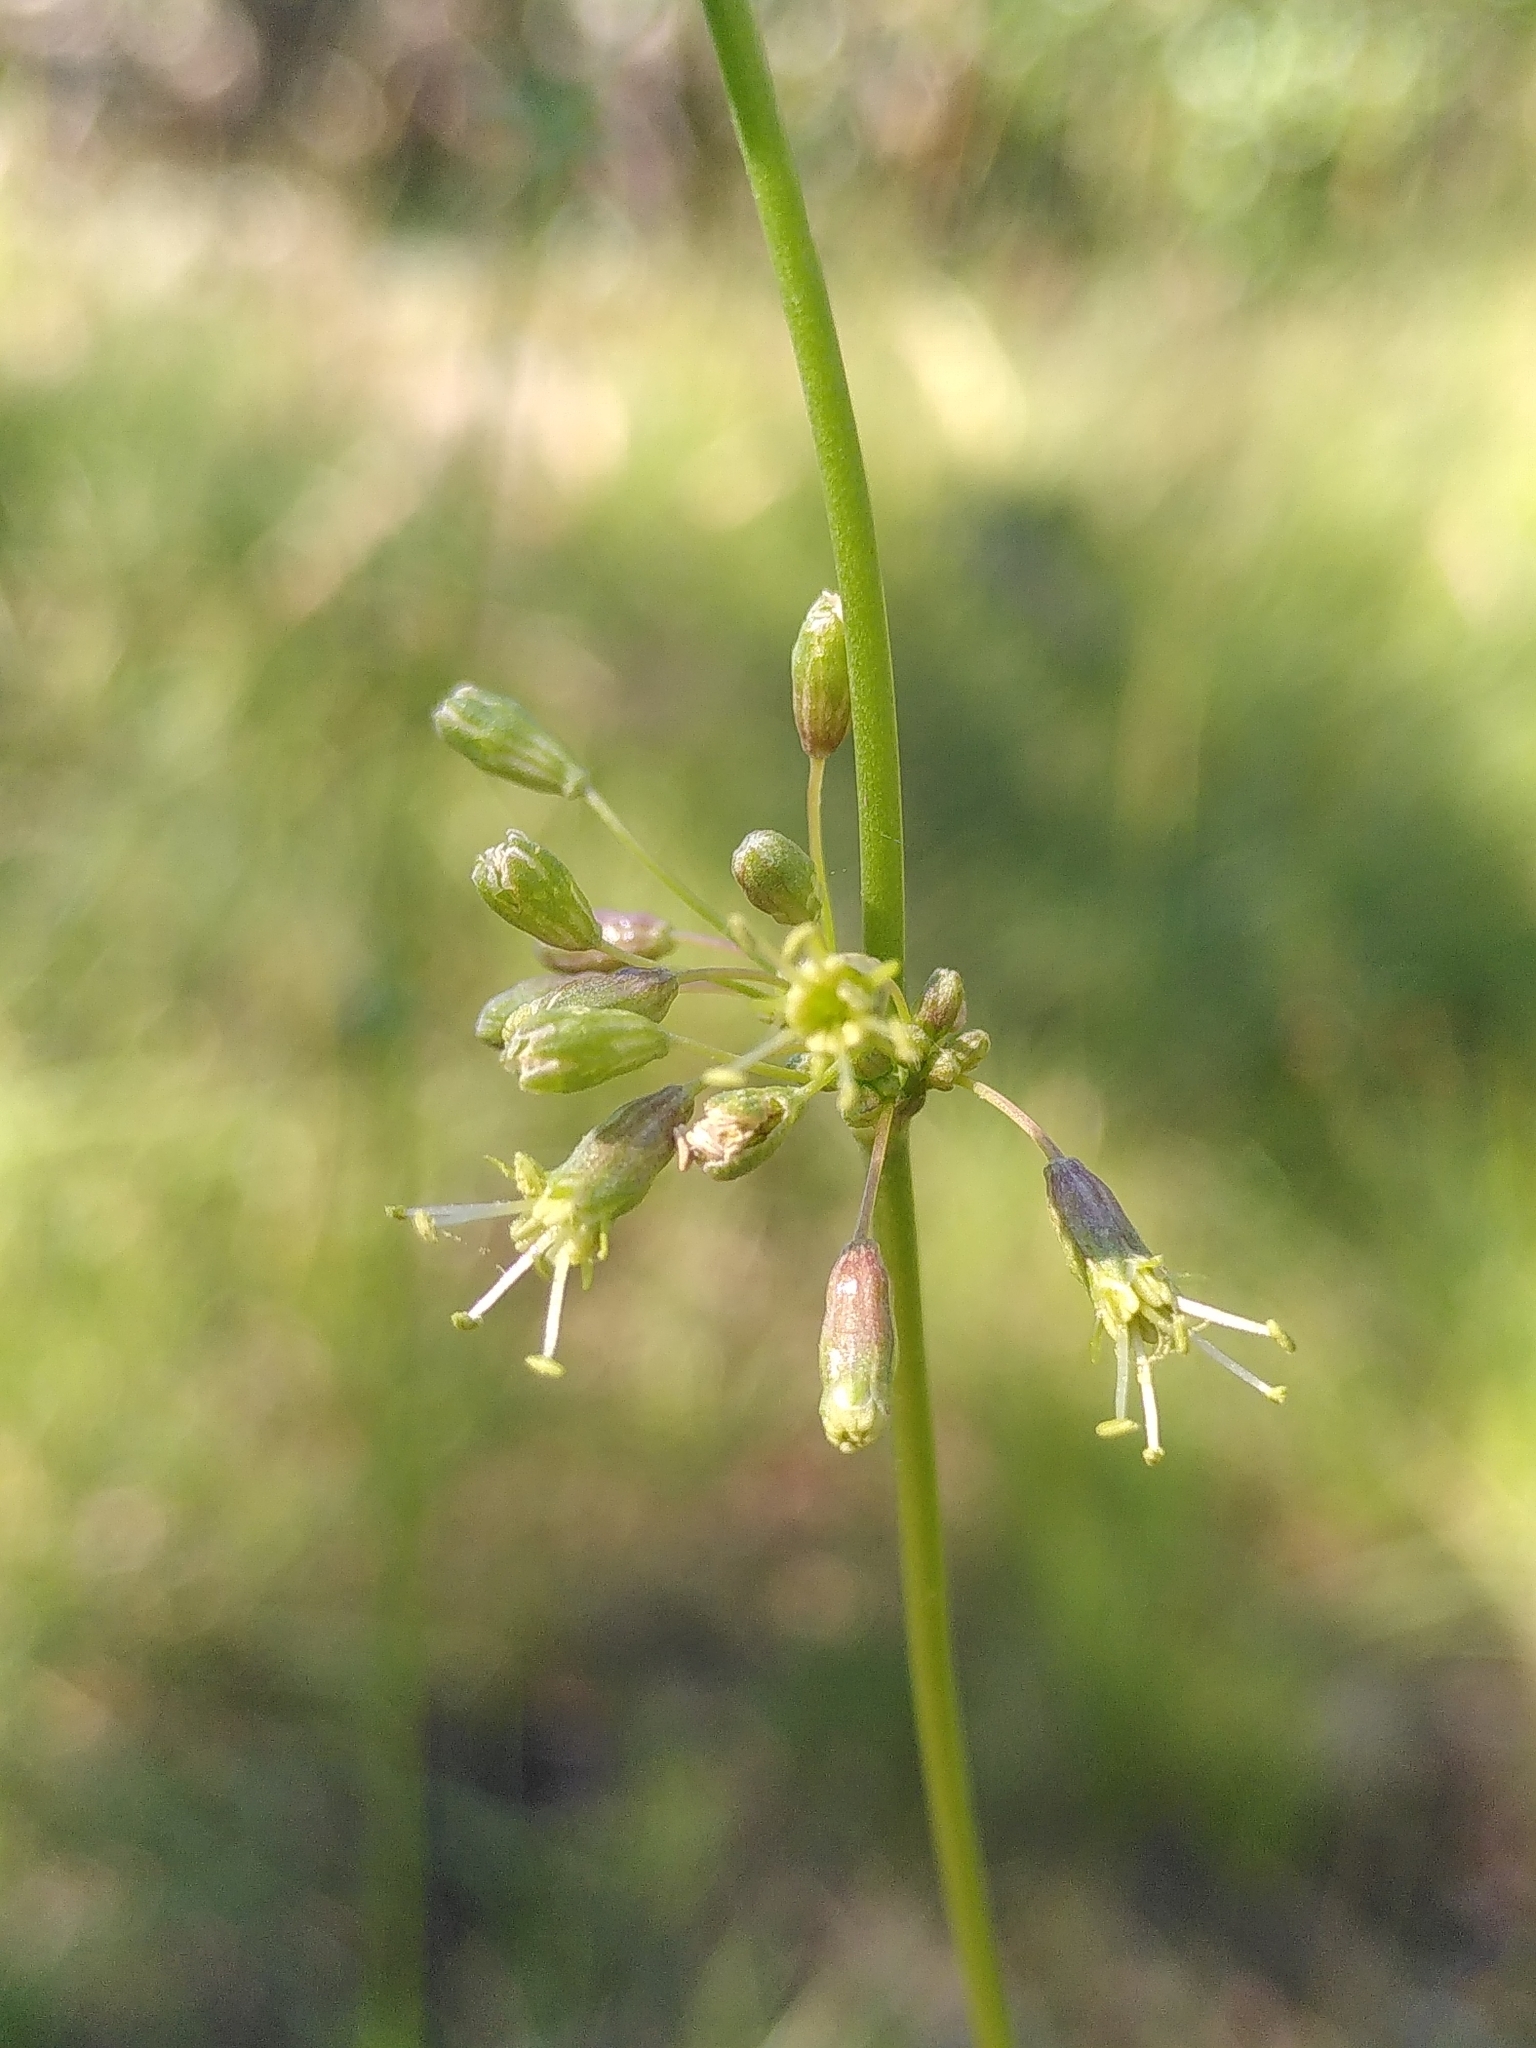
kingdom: Plantae
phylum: Tracheophyta
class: Magnoliopsida
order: Caryophyllales
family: Caryophyllaceae
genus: Silene
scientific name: Silene otites
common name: Spanish catchfly
